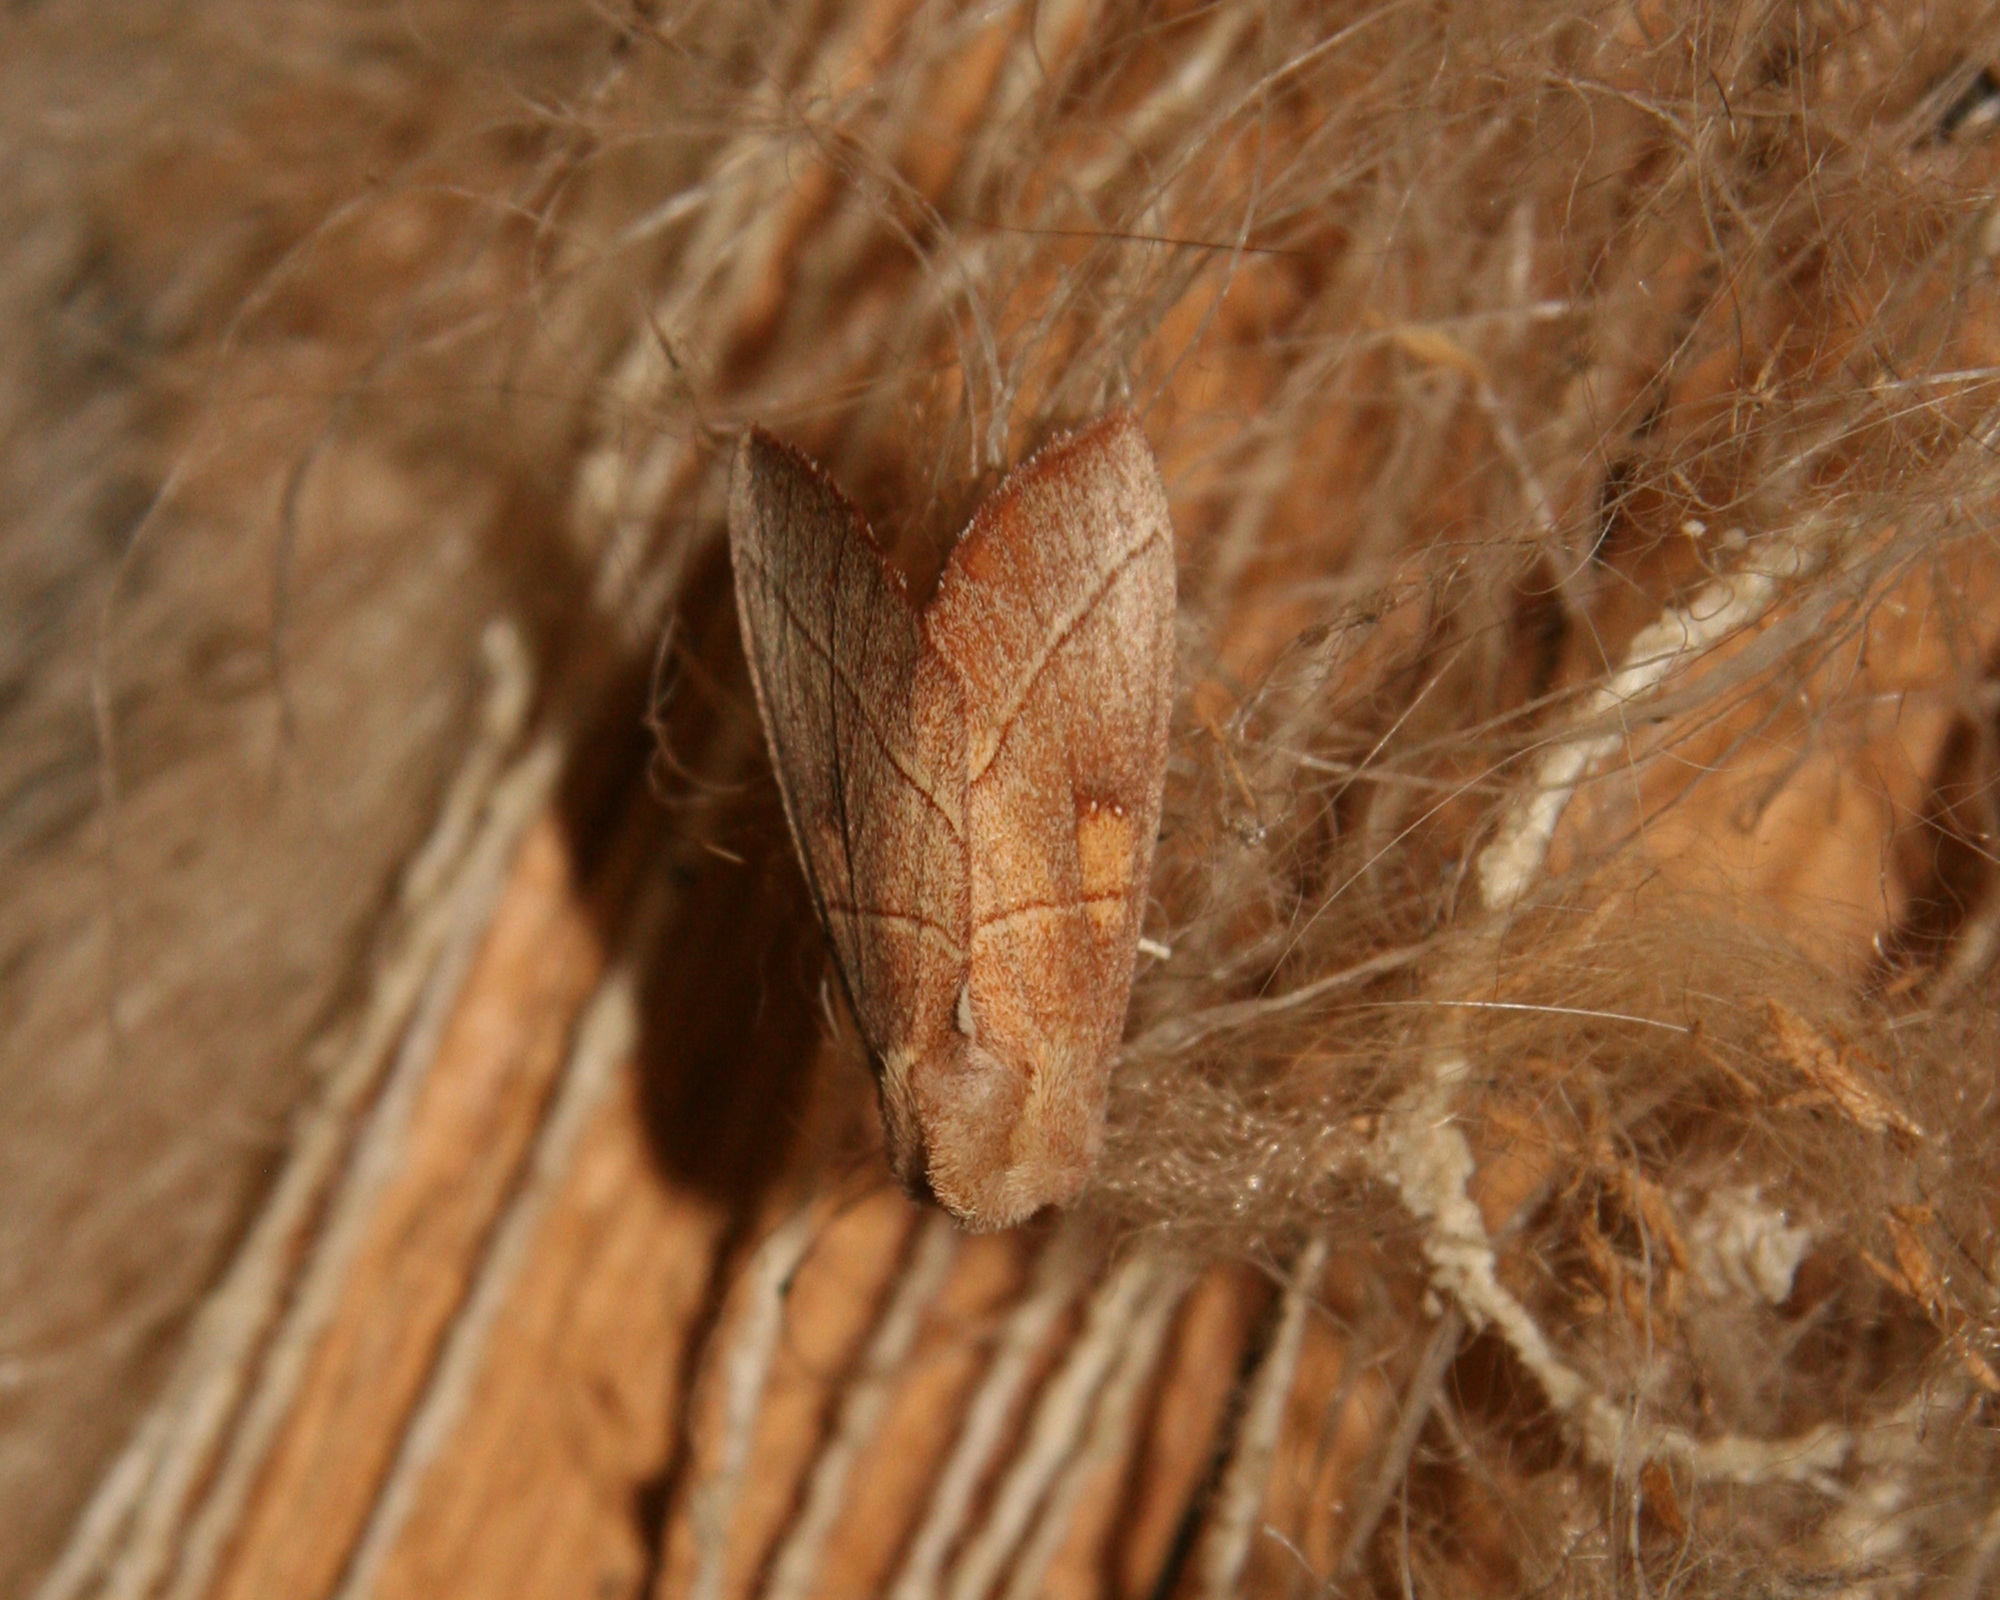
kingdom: Animalia
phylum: Arthropoda
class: Insecta
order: Lepidoptera
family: Notodontidae
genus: Nadata
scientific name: Nadata gibbosa
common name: White-dotted prominent
